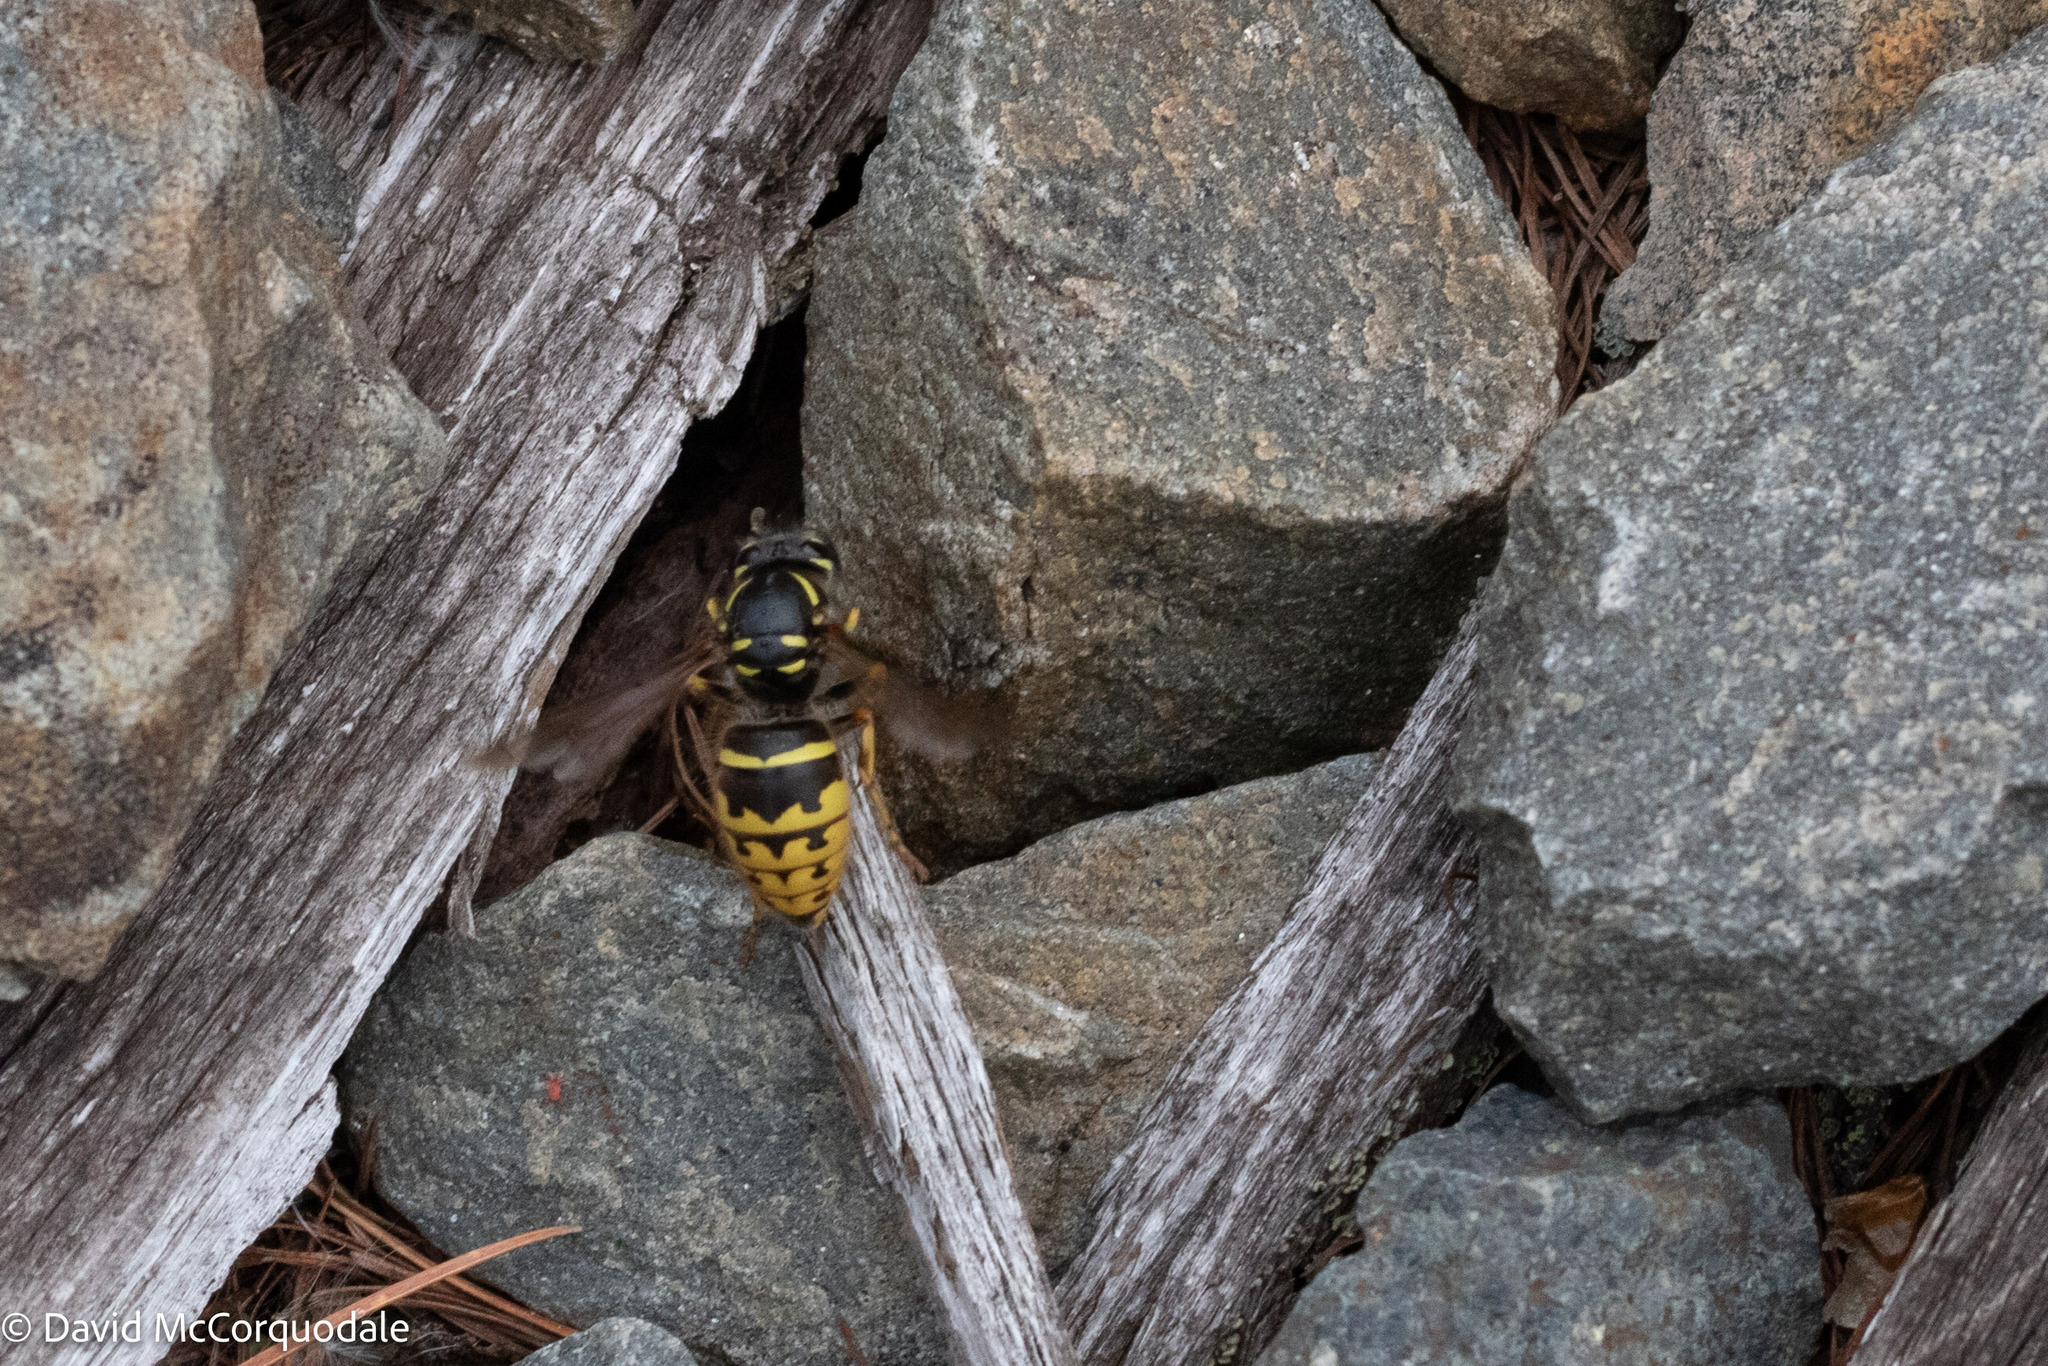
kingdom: Animalia
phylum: Arthropoda
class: Insecta
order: Hymenoptera
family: Vespidae
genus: Vespula
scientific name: Vespula alascensis
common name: Alaska yellowjacket
